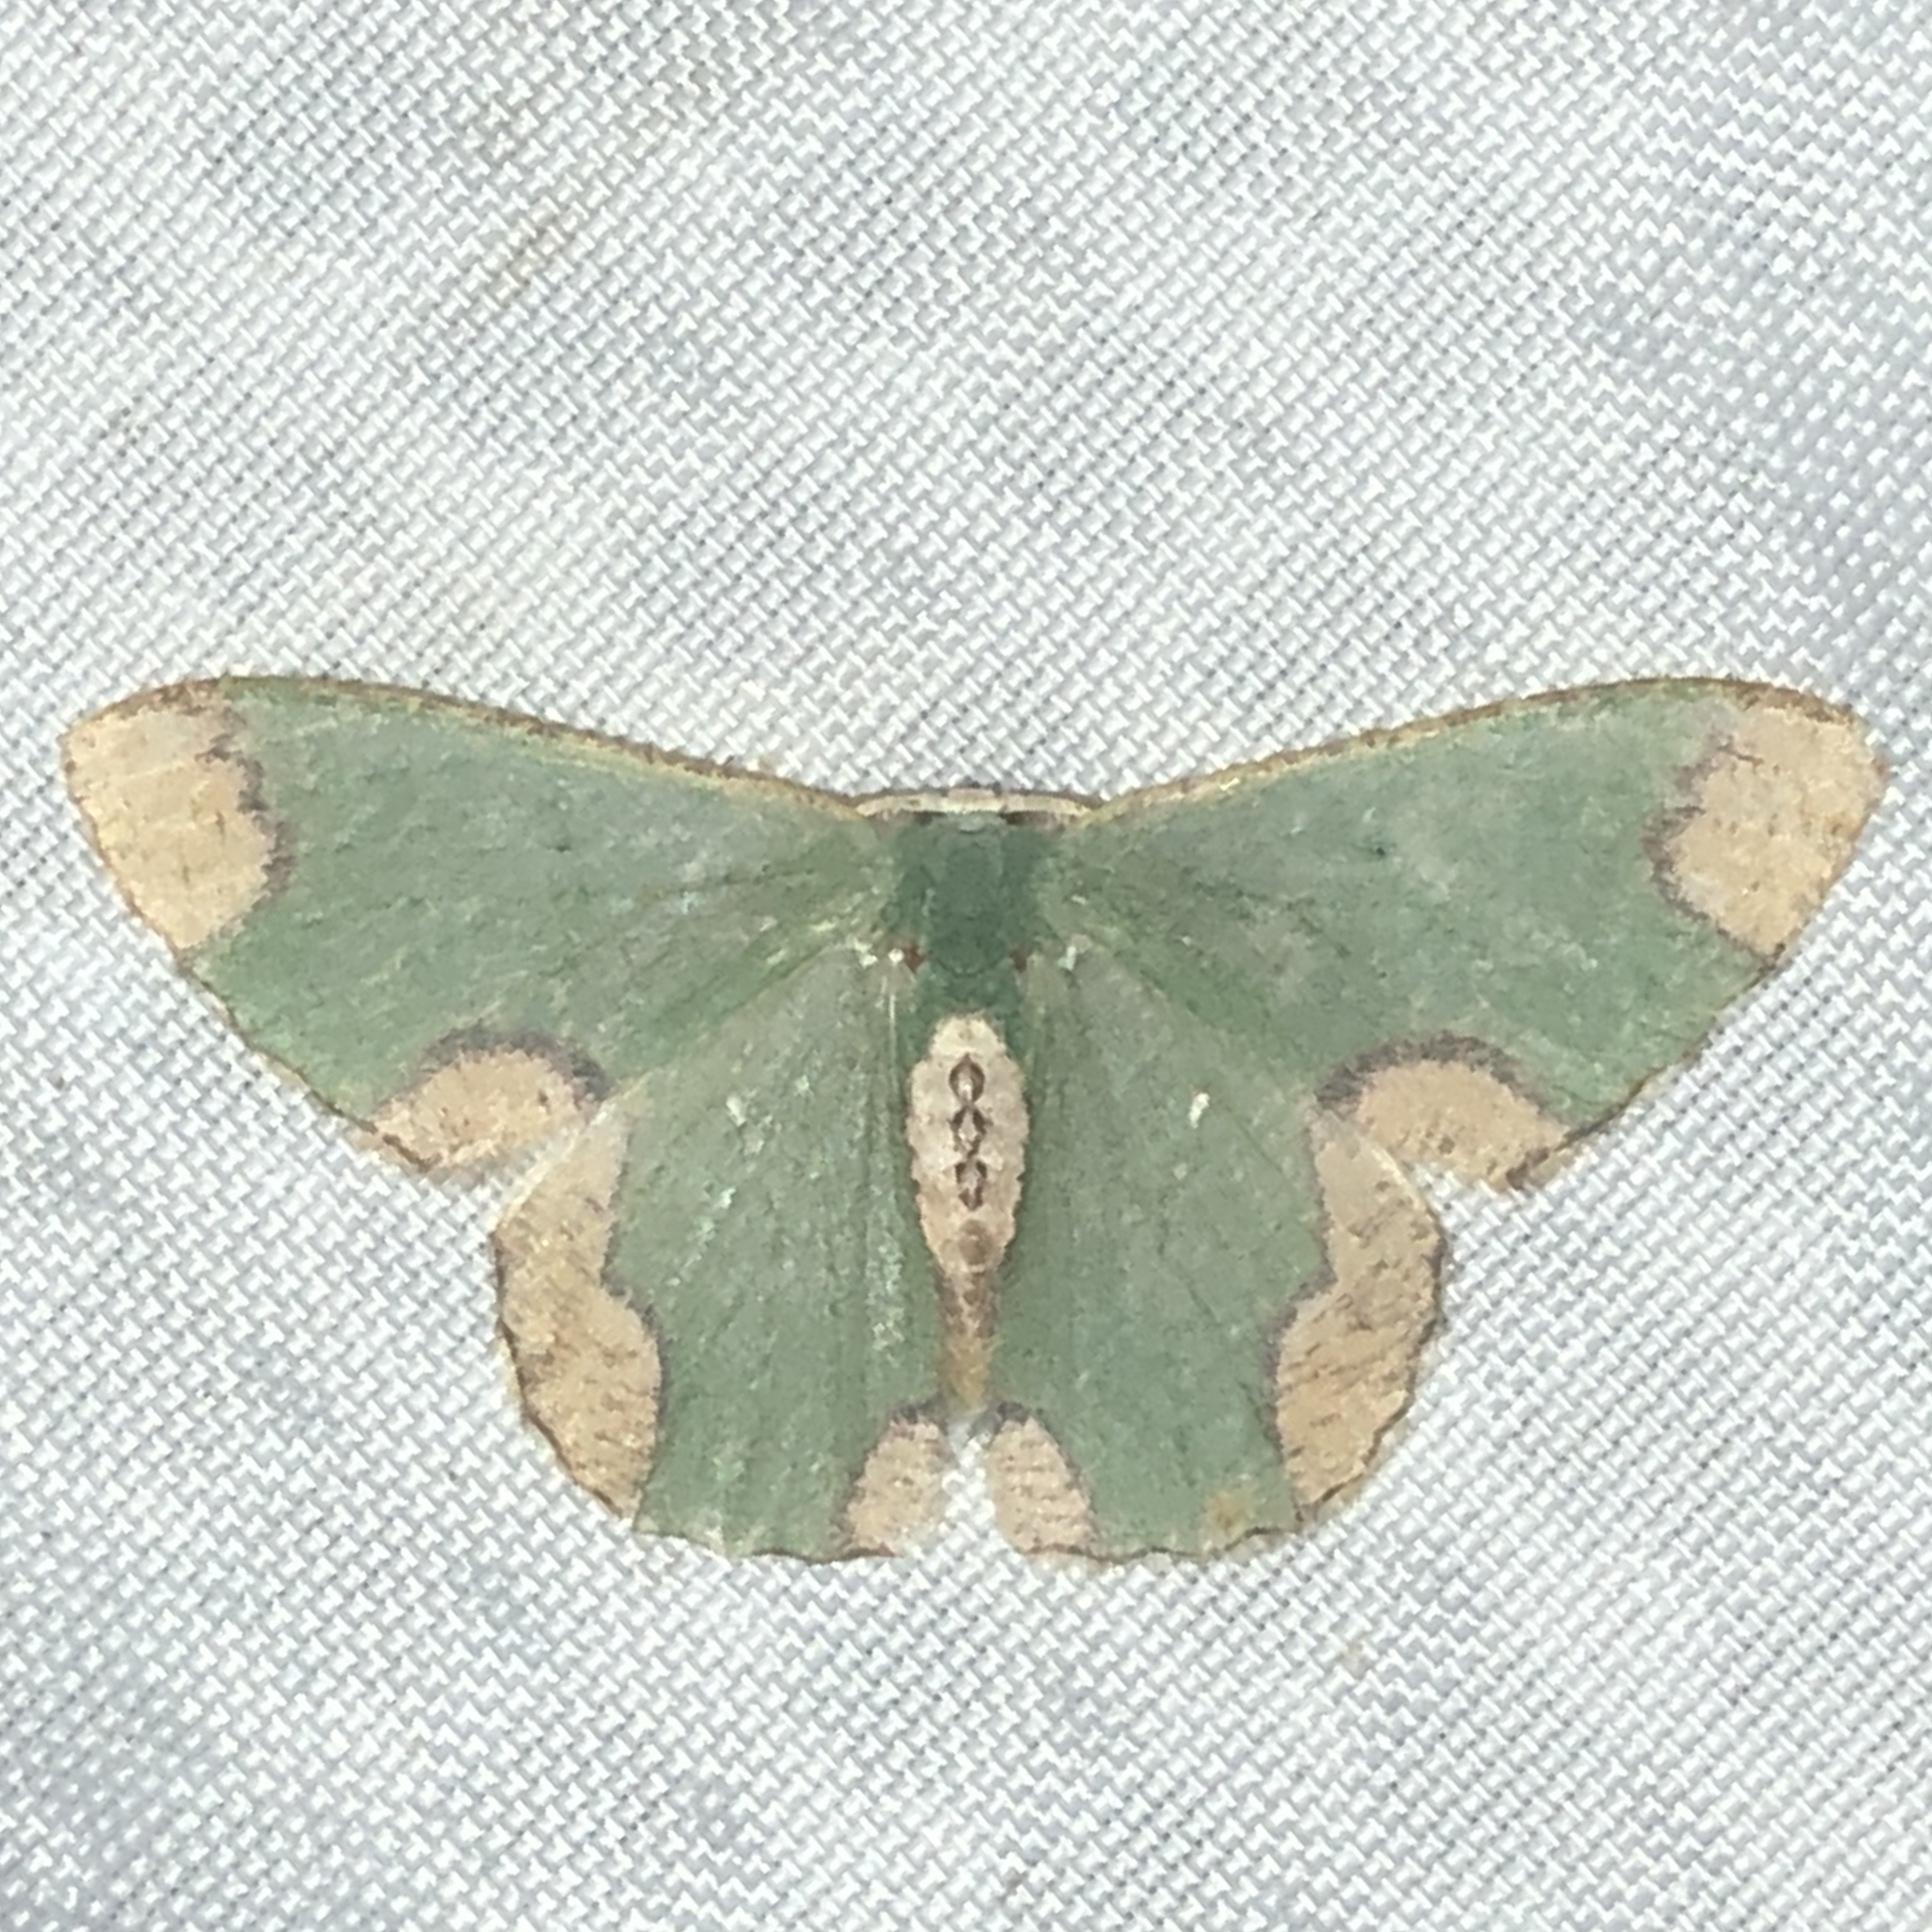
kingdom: Animalia
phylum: Arthropoda
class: Insecta
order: Lepidoptera
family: Geometridae
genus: Oospila
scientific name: Oospila depressa
